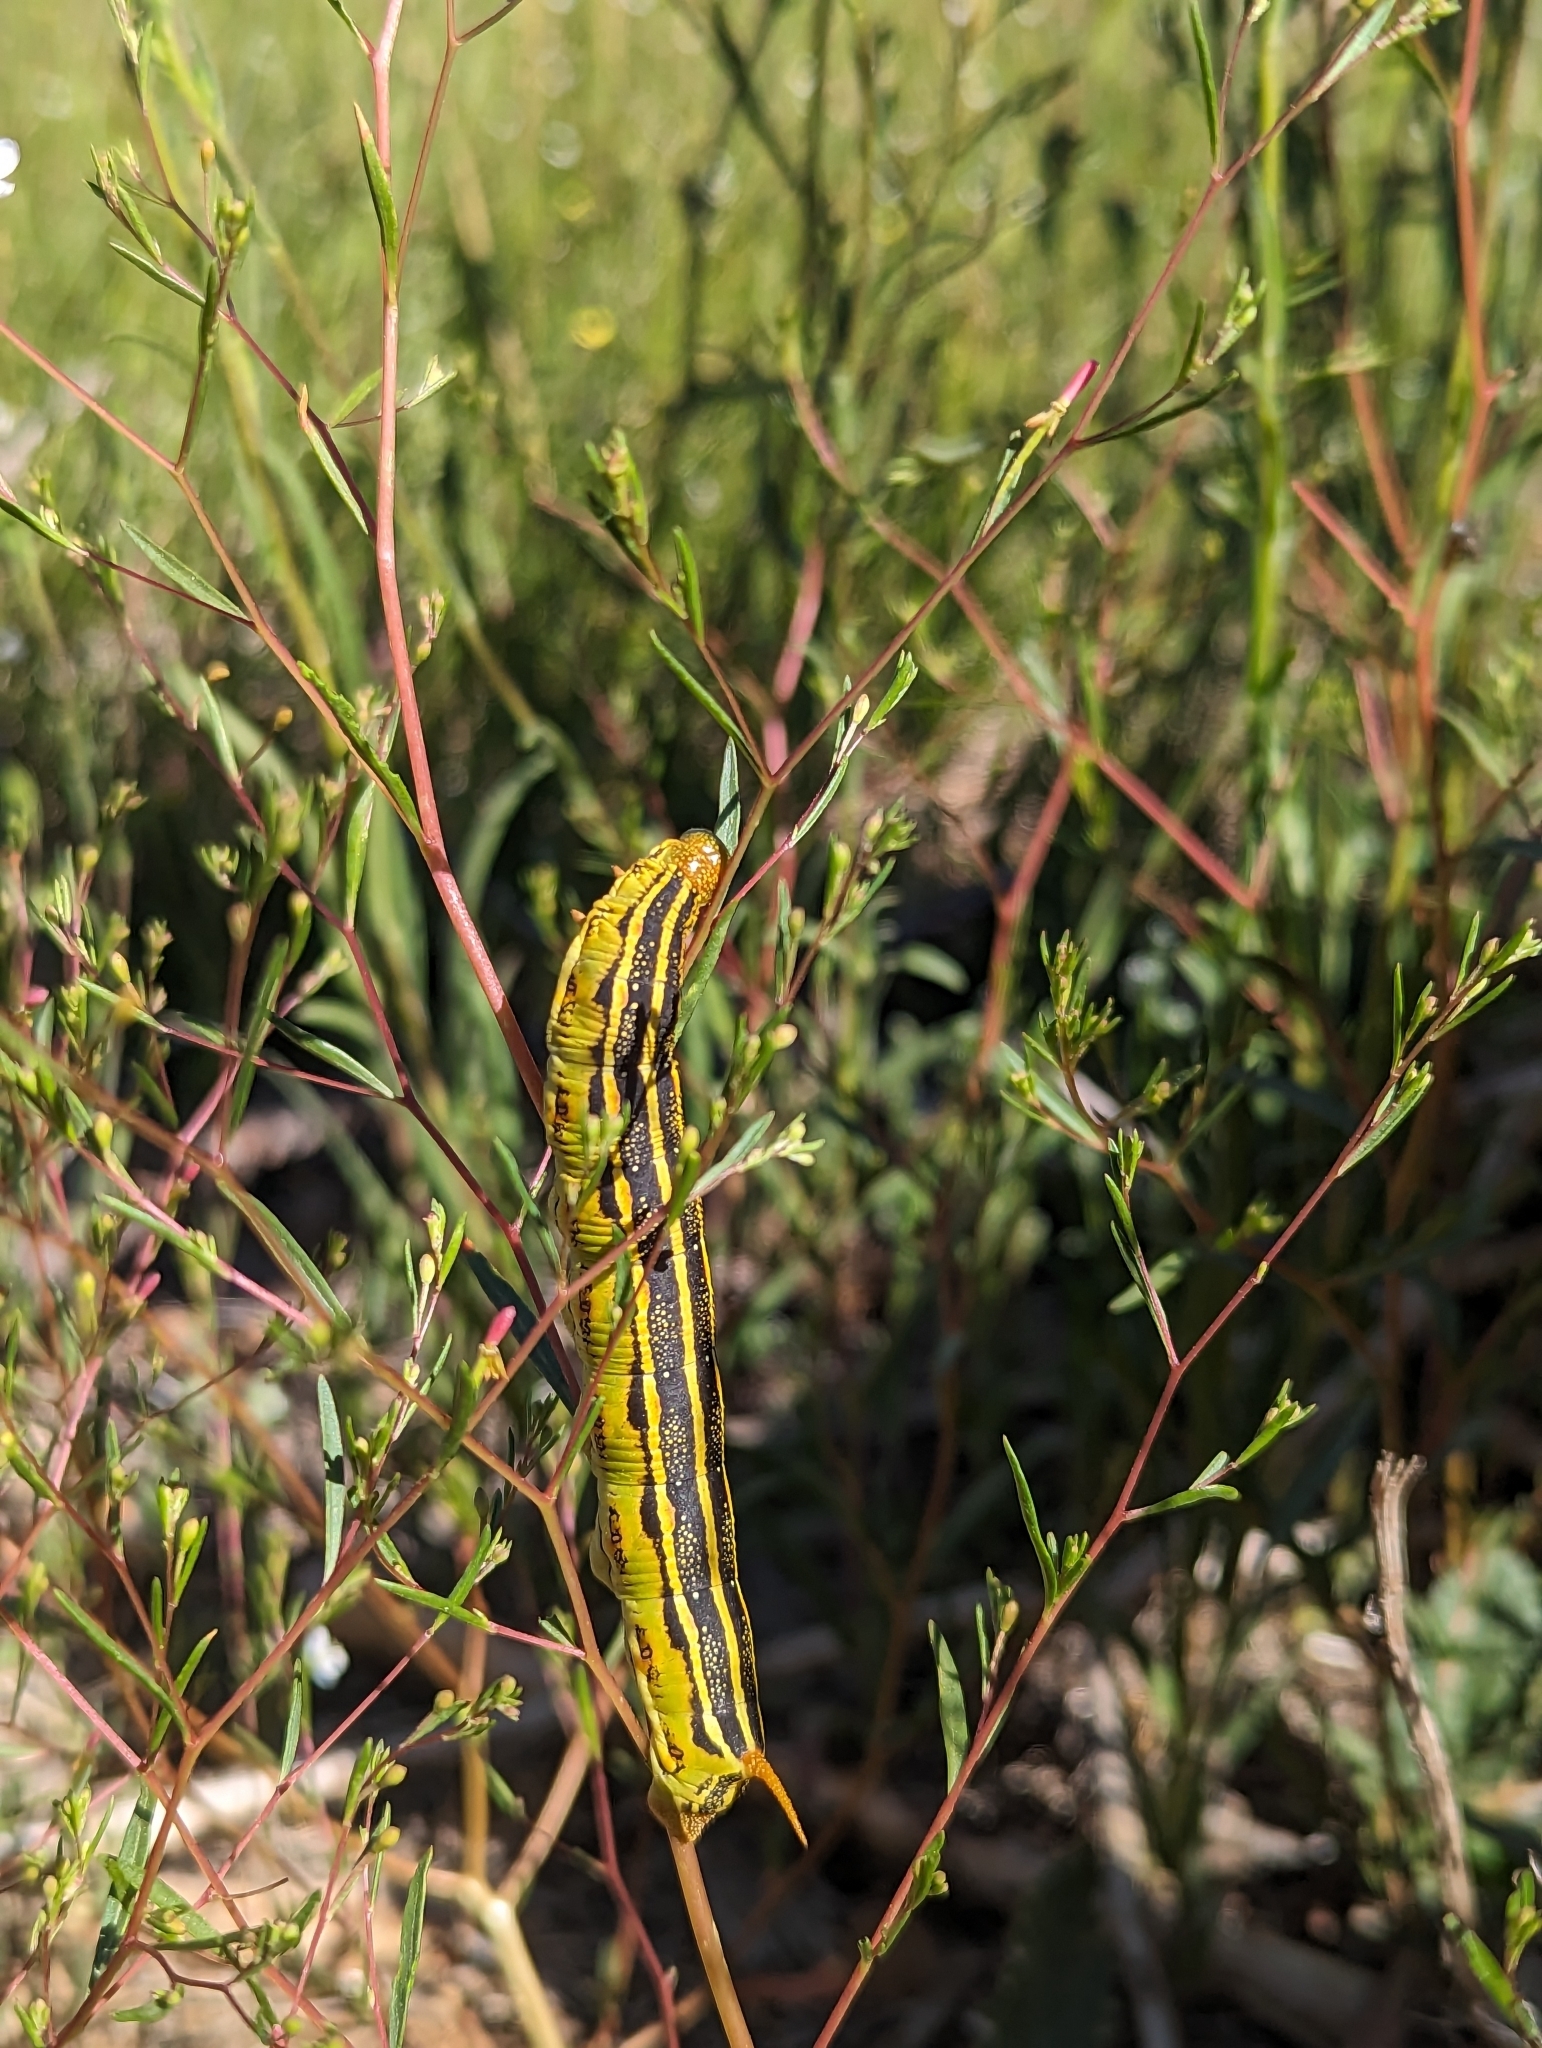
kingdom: Animalia
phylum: Arthropoda
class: Insecta
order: Lepidoptera
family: Sphingidae
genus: Hyles
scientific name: Hyles lineata
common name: White-lined sphinx
